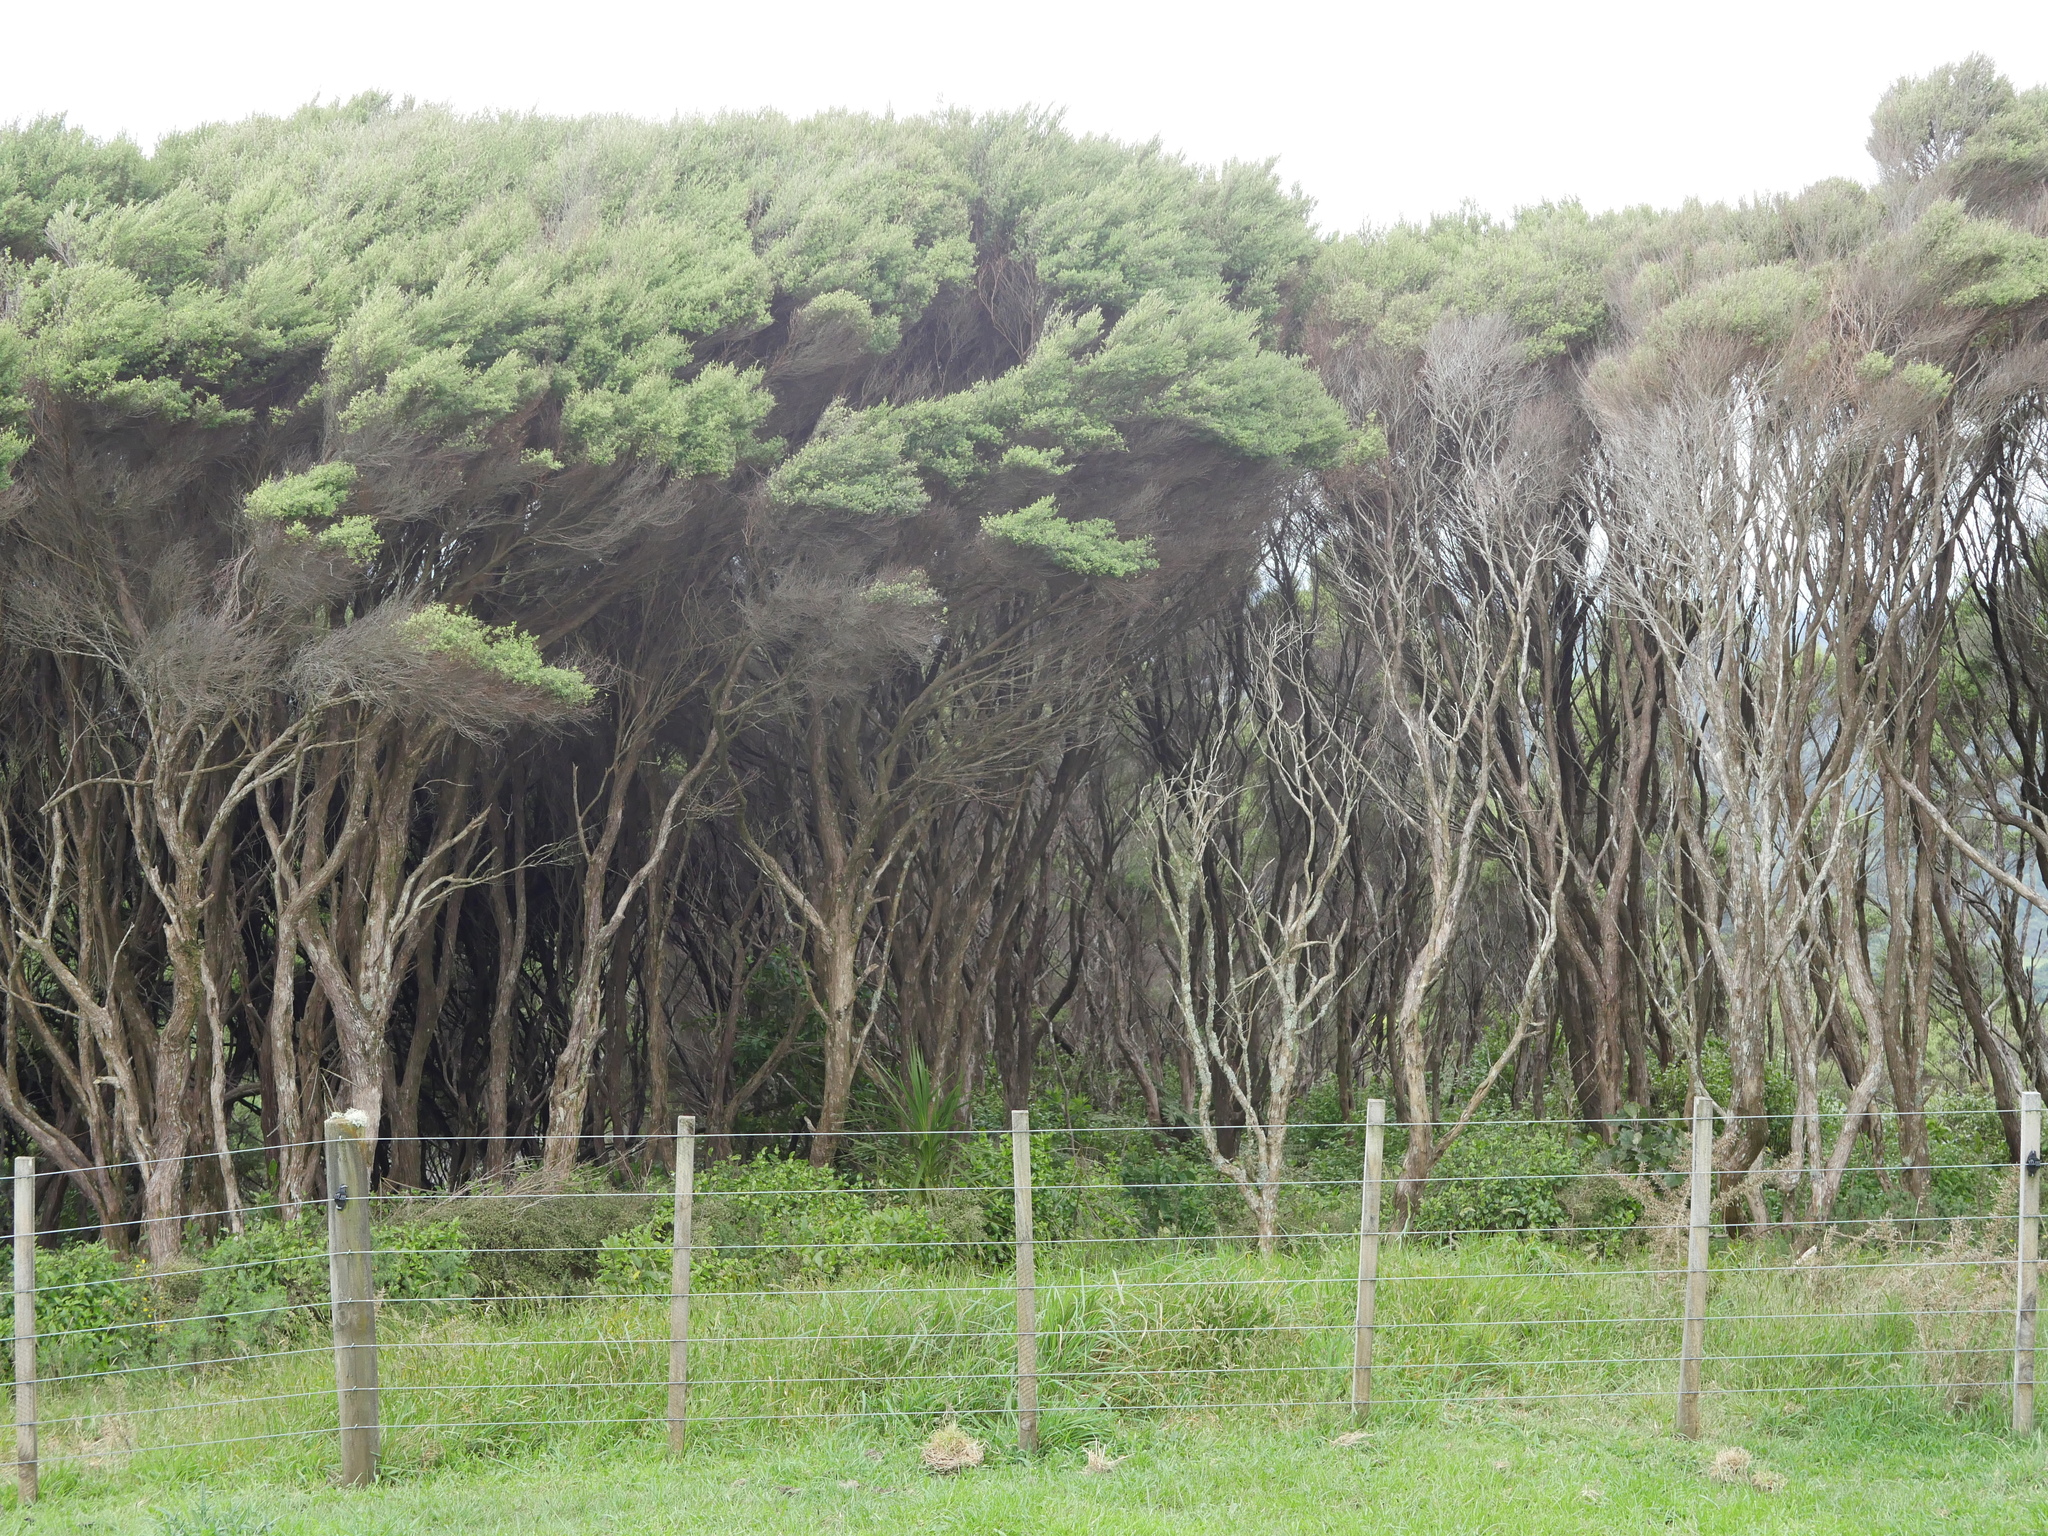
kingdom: Plantae
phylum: Tracheophyta
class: Magnoliopsida
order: Myrtales
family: Myrtaceae
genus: Kunzea
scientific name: Kunzea robusta
